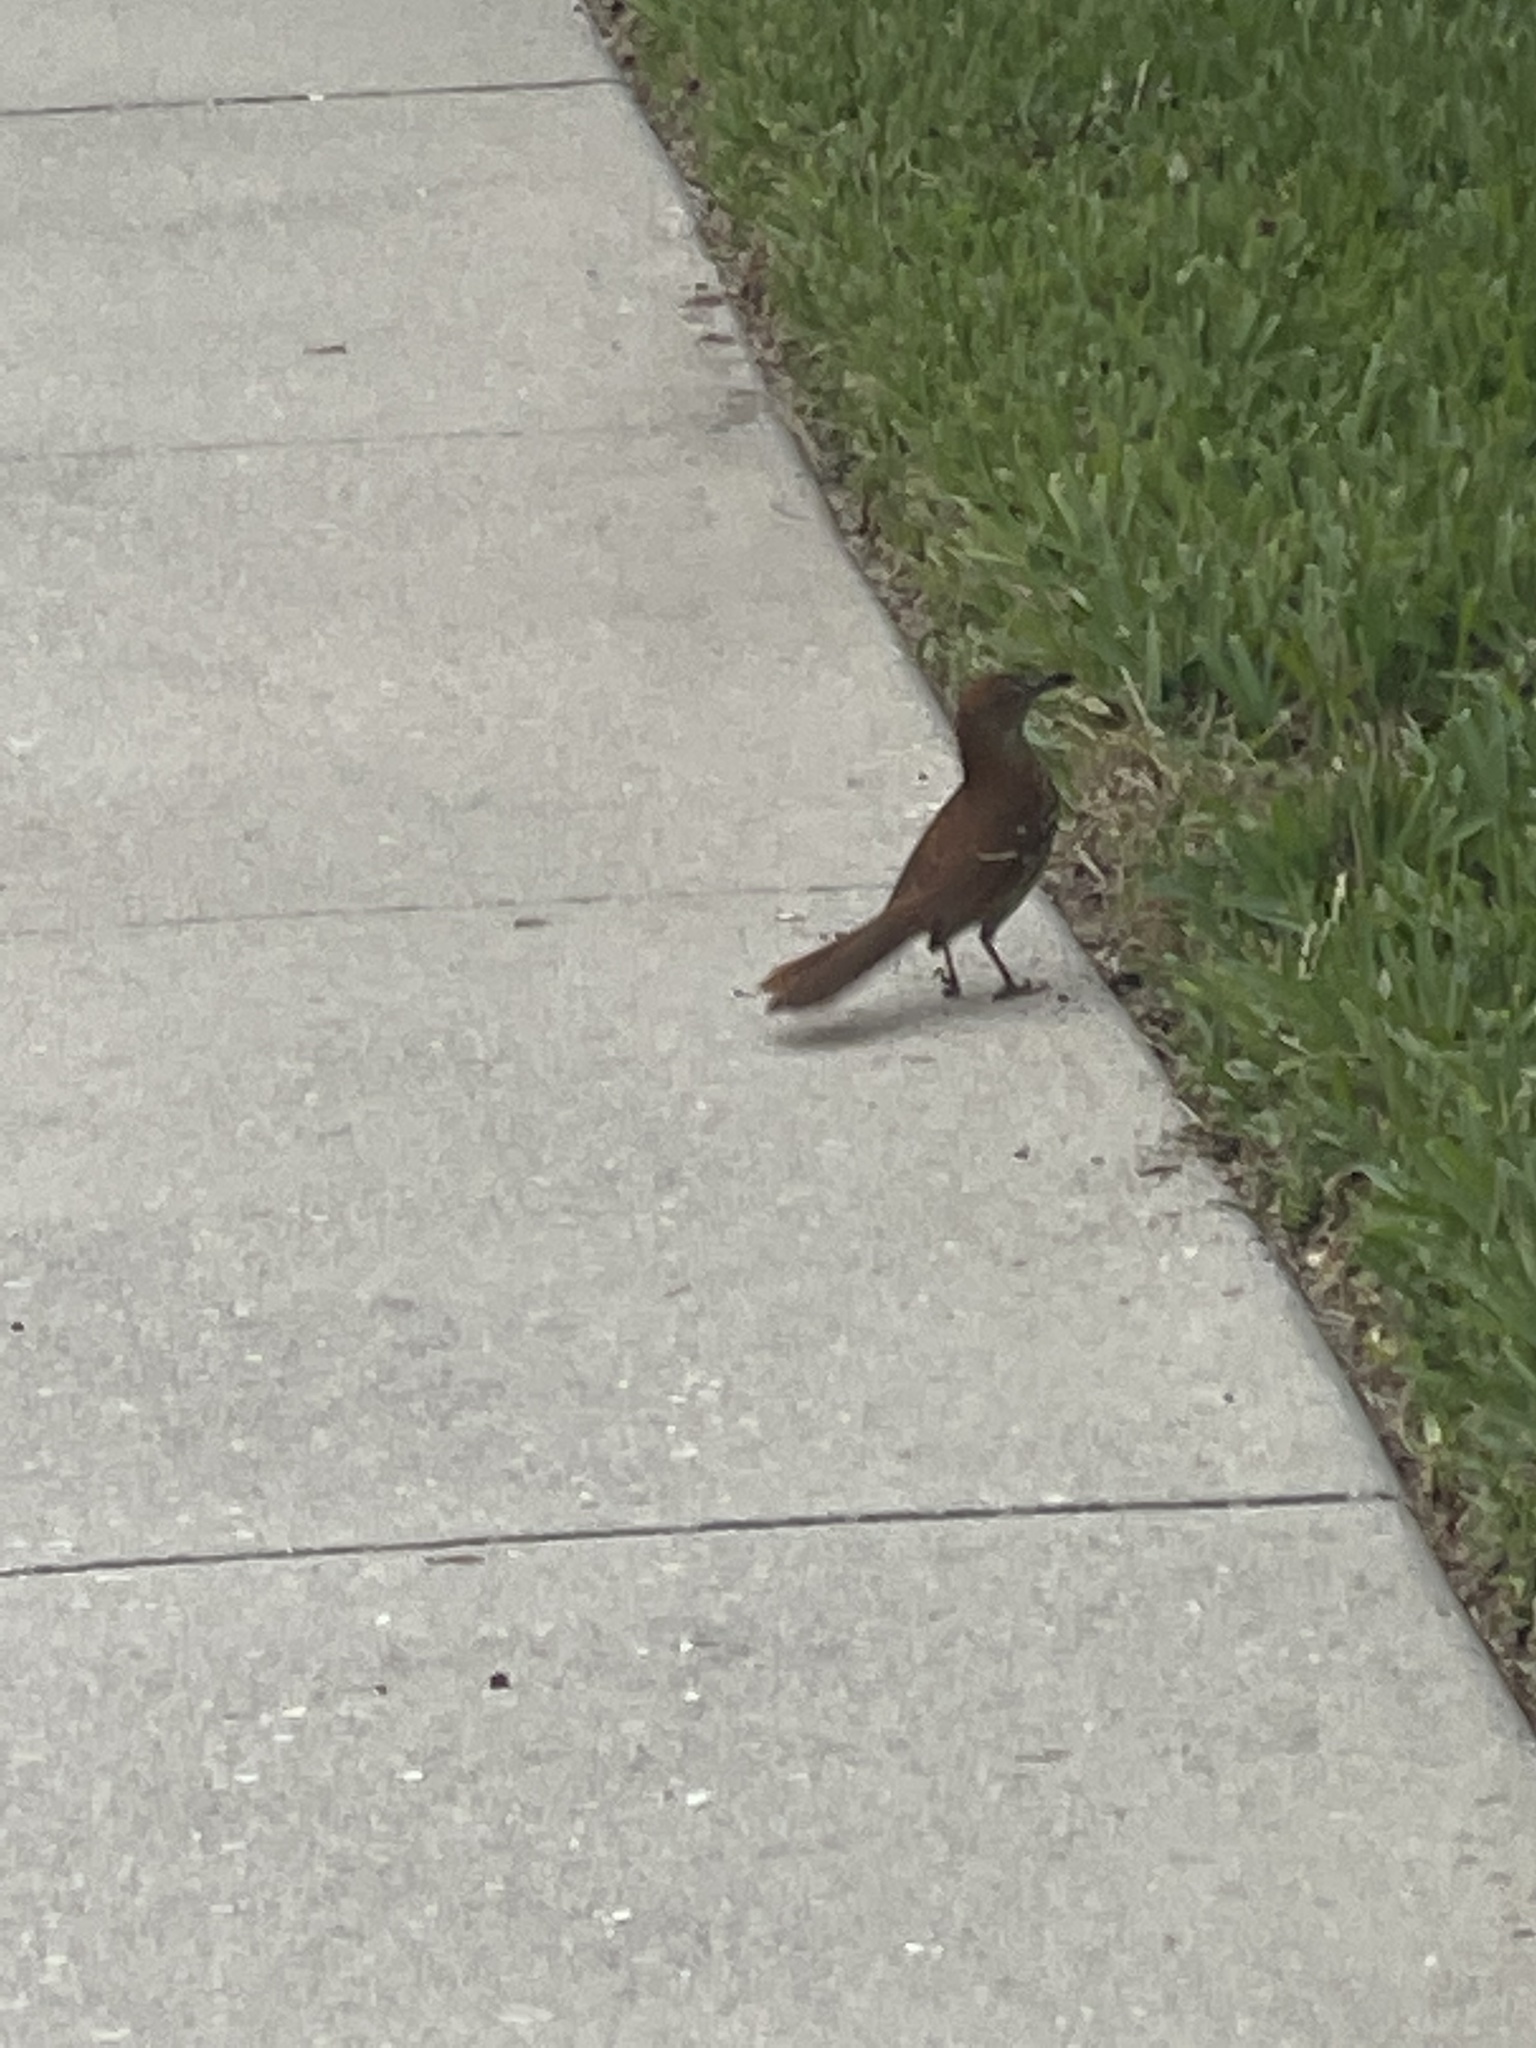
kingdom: Animalia
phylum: Chordata
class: Aves
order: Passeriformes
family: Mimidae
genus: Toxostoma
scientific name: Toxostoma rufum
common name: Brown thrasher
